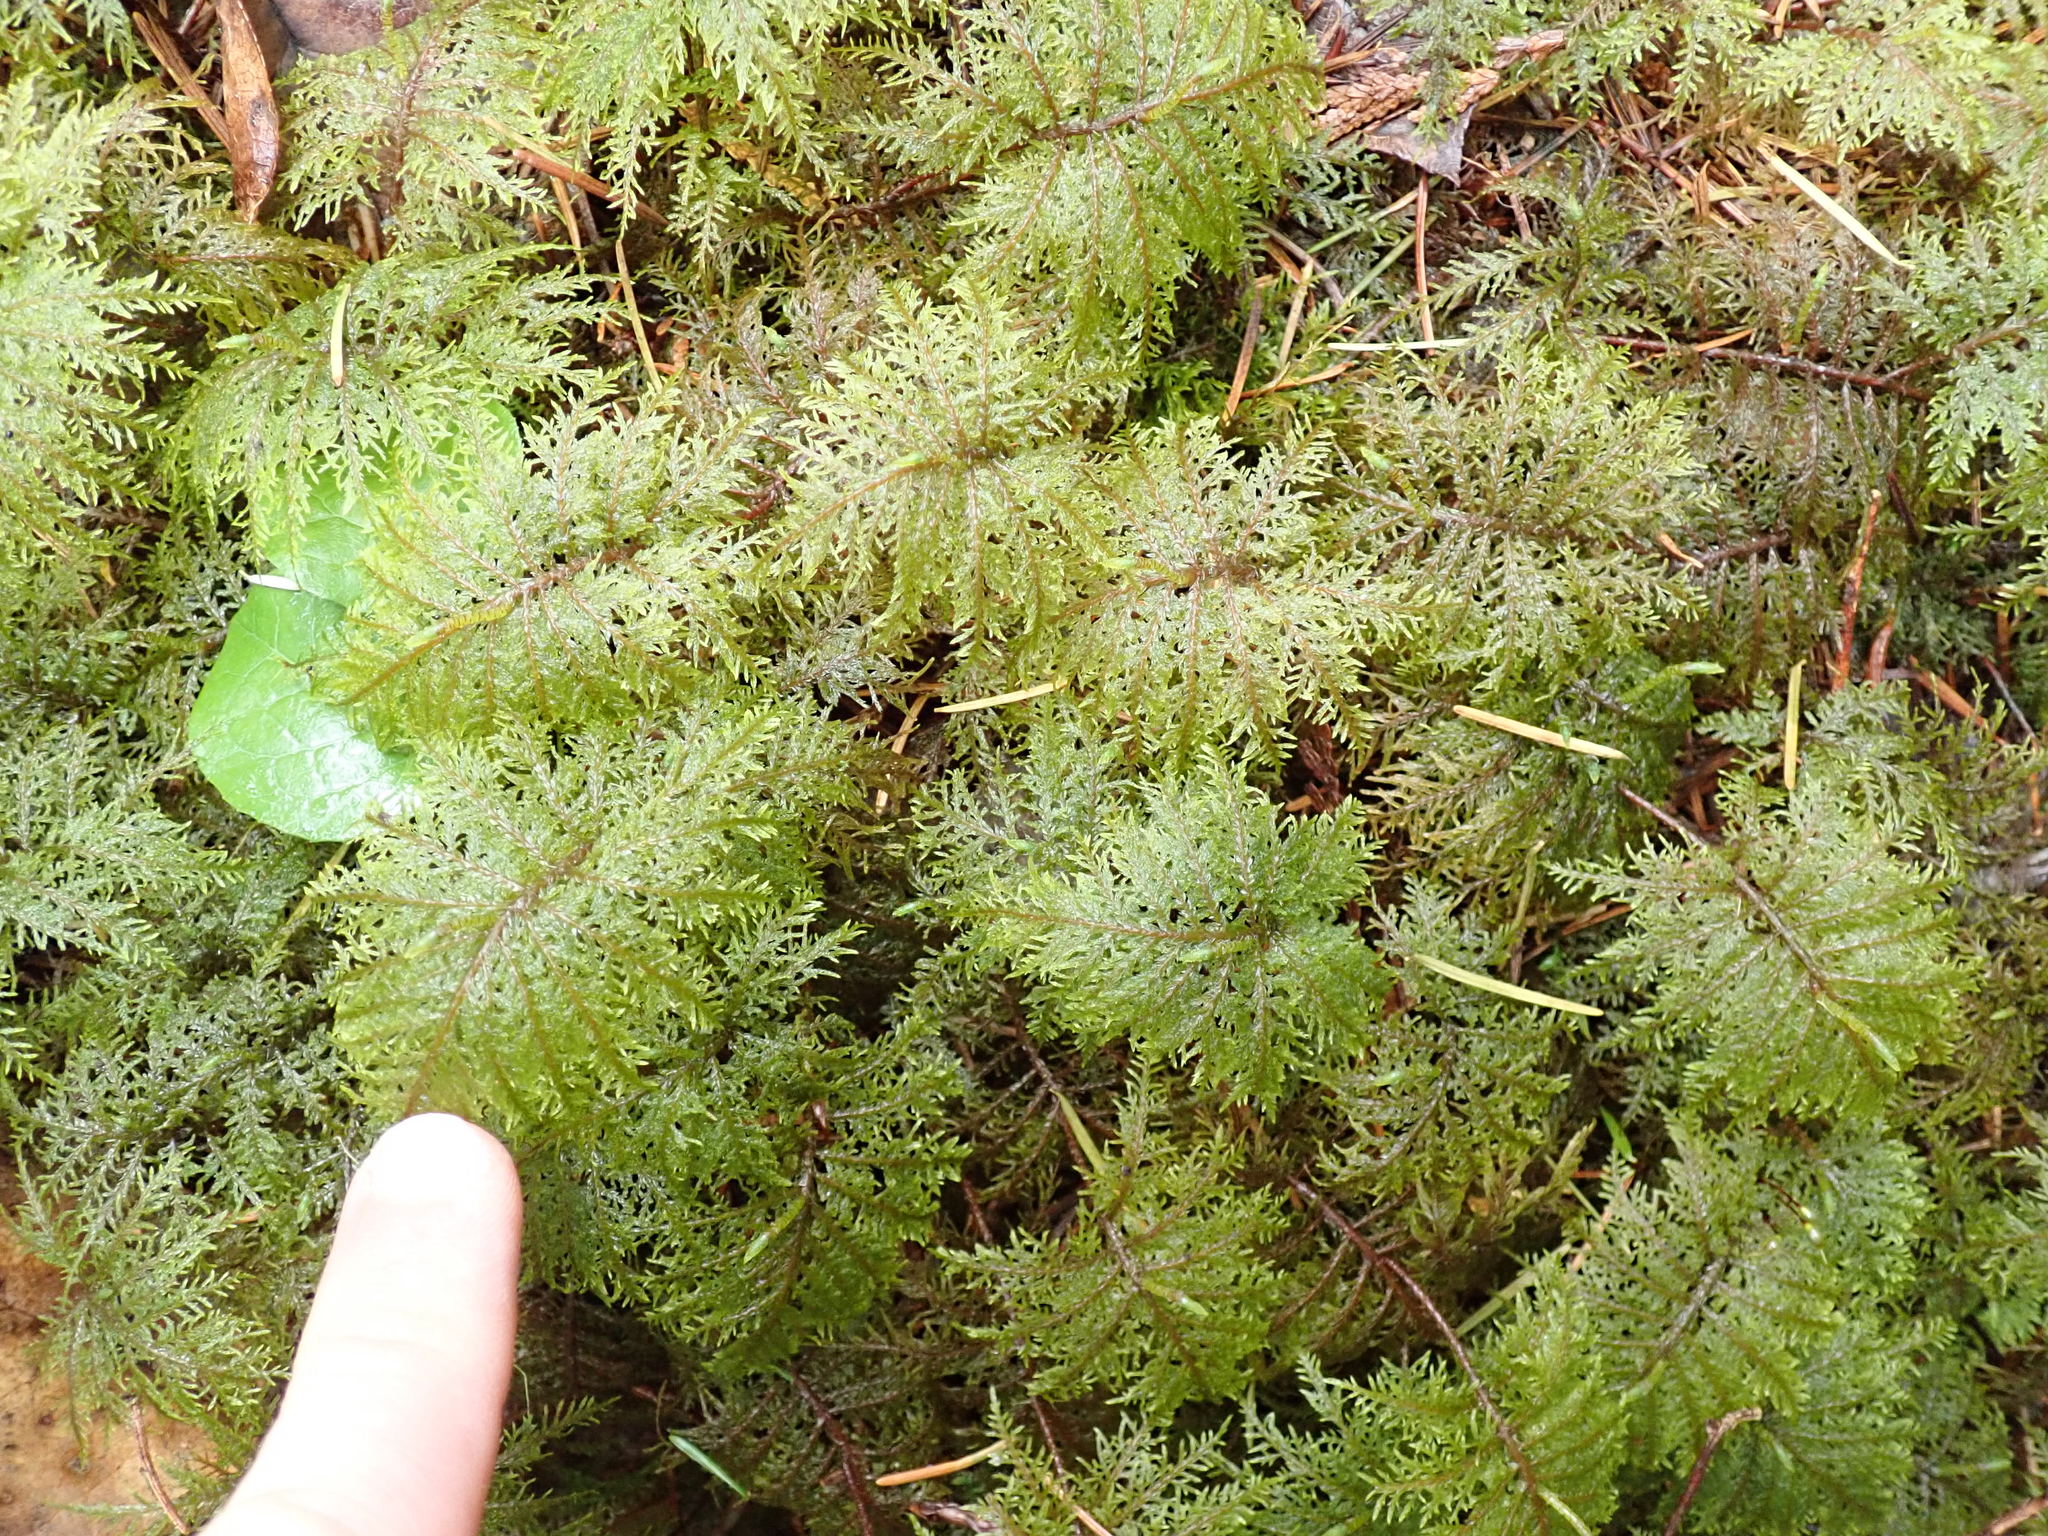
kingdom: Plantae
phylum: Bryophyta
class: Bryopsida
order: Hypnales
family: Hylocomiaceae
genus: Hylocomium
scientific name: Hylocomium splendens
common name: Stairstep moss
